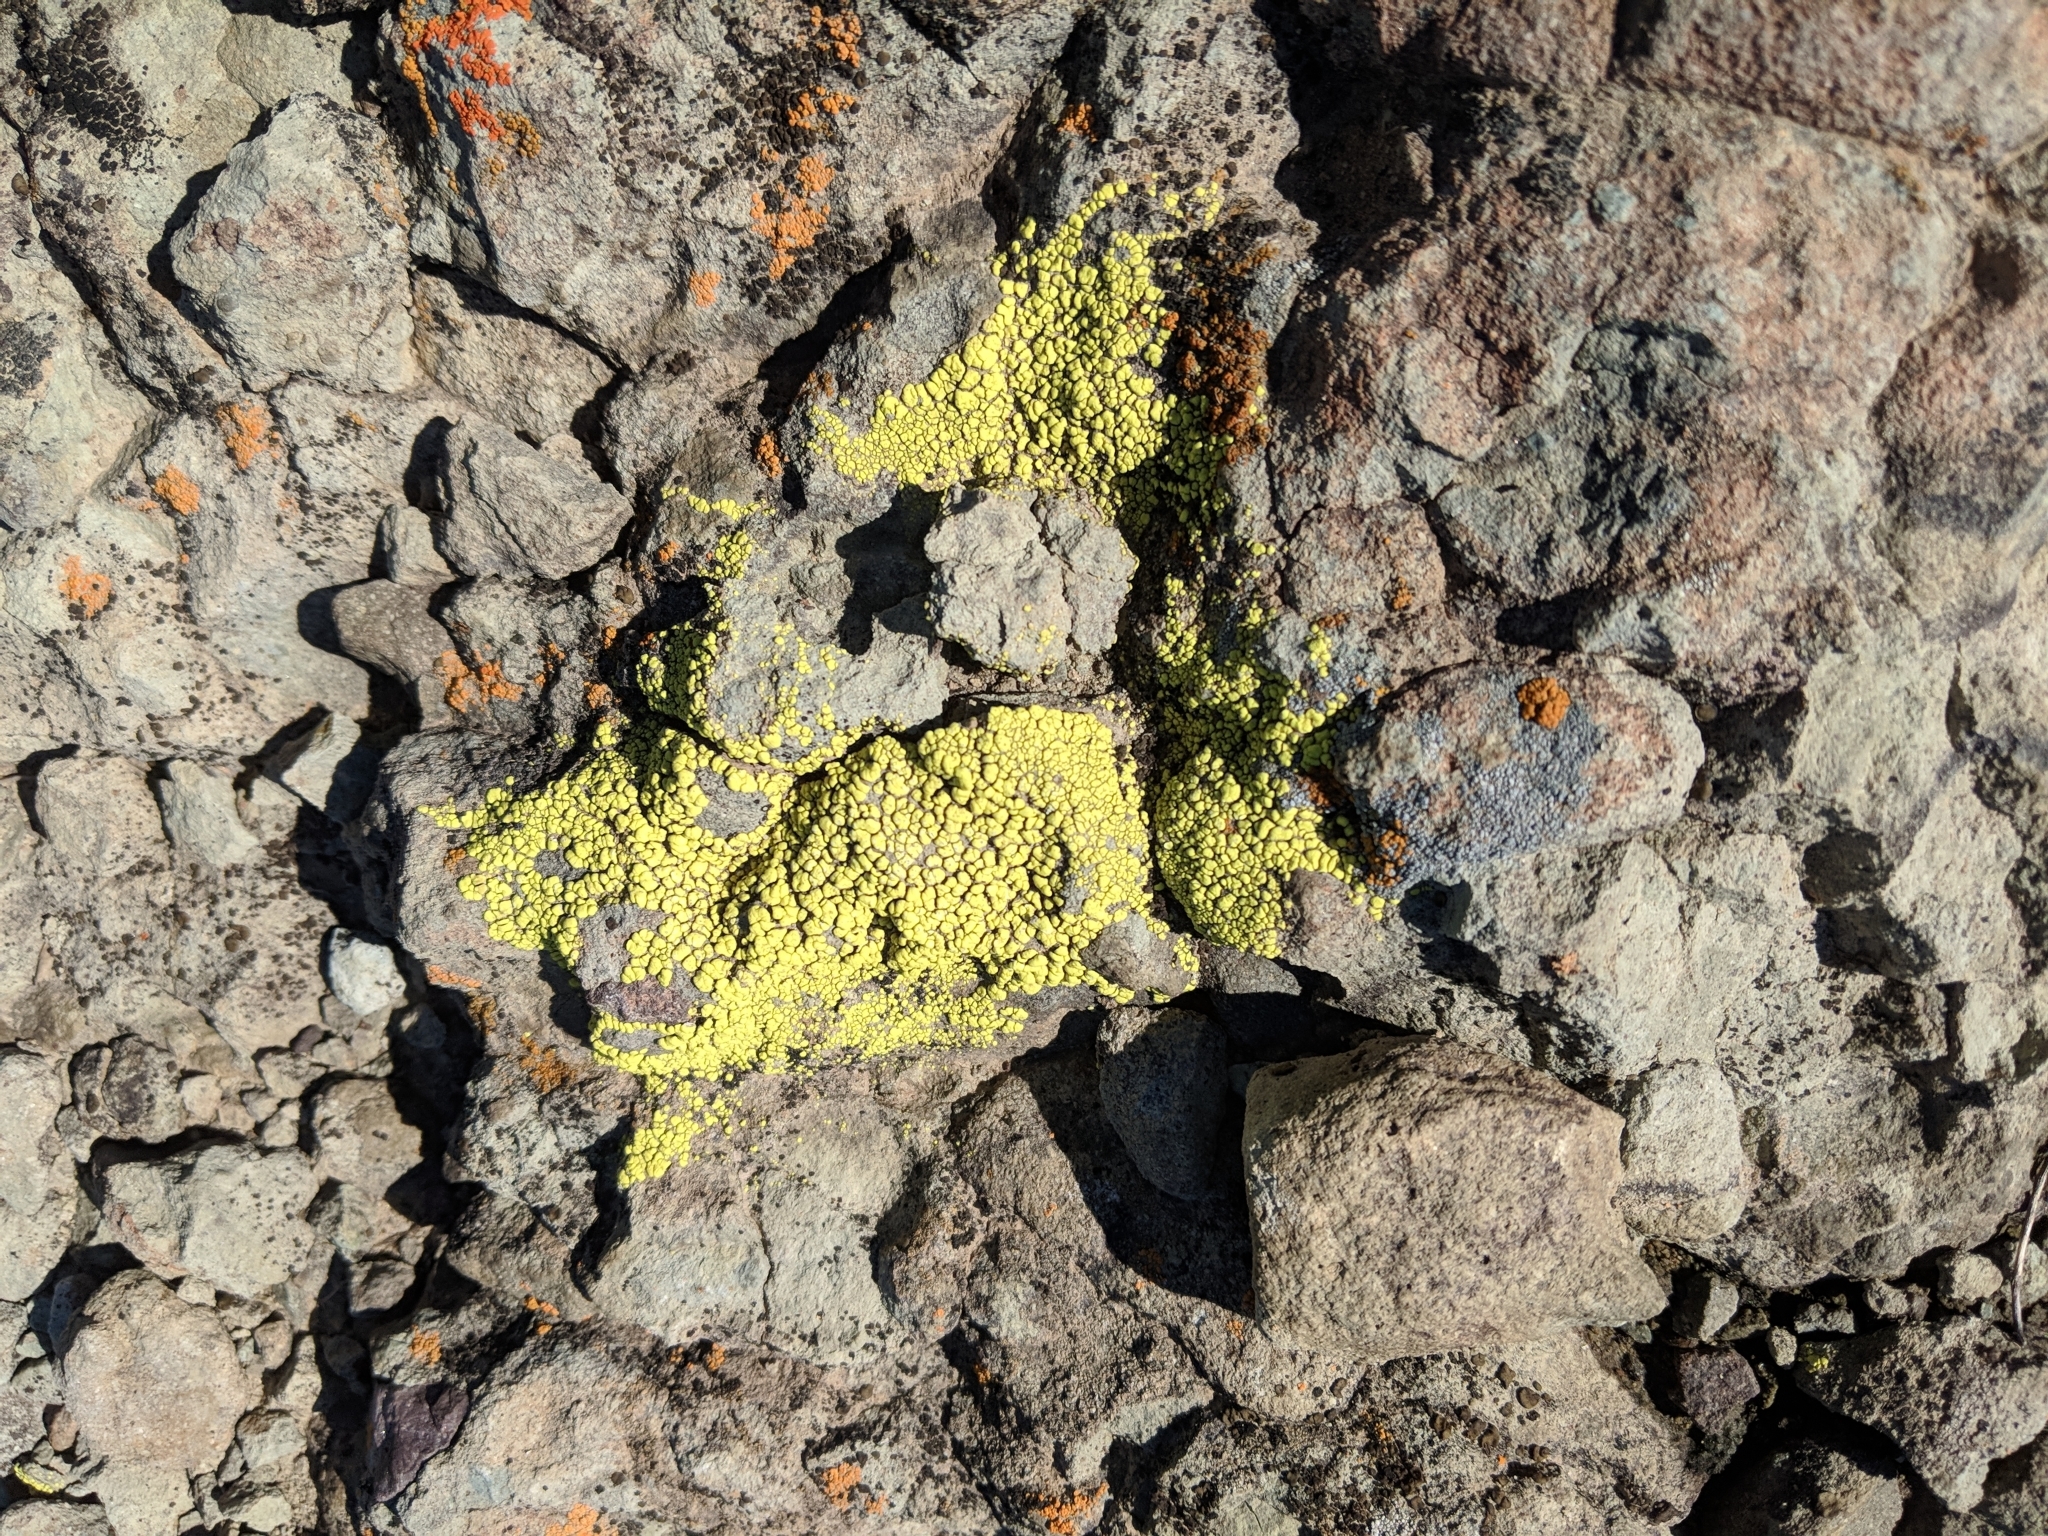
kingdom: Fungi
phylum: Ascomycota
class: Lecanoromycetes
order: Acarosporales
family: Acarosporaceae
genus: Acarospora
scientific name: Acarospora socialis
